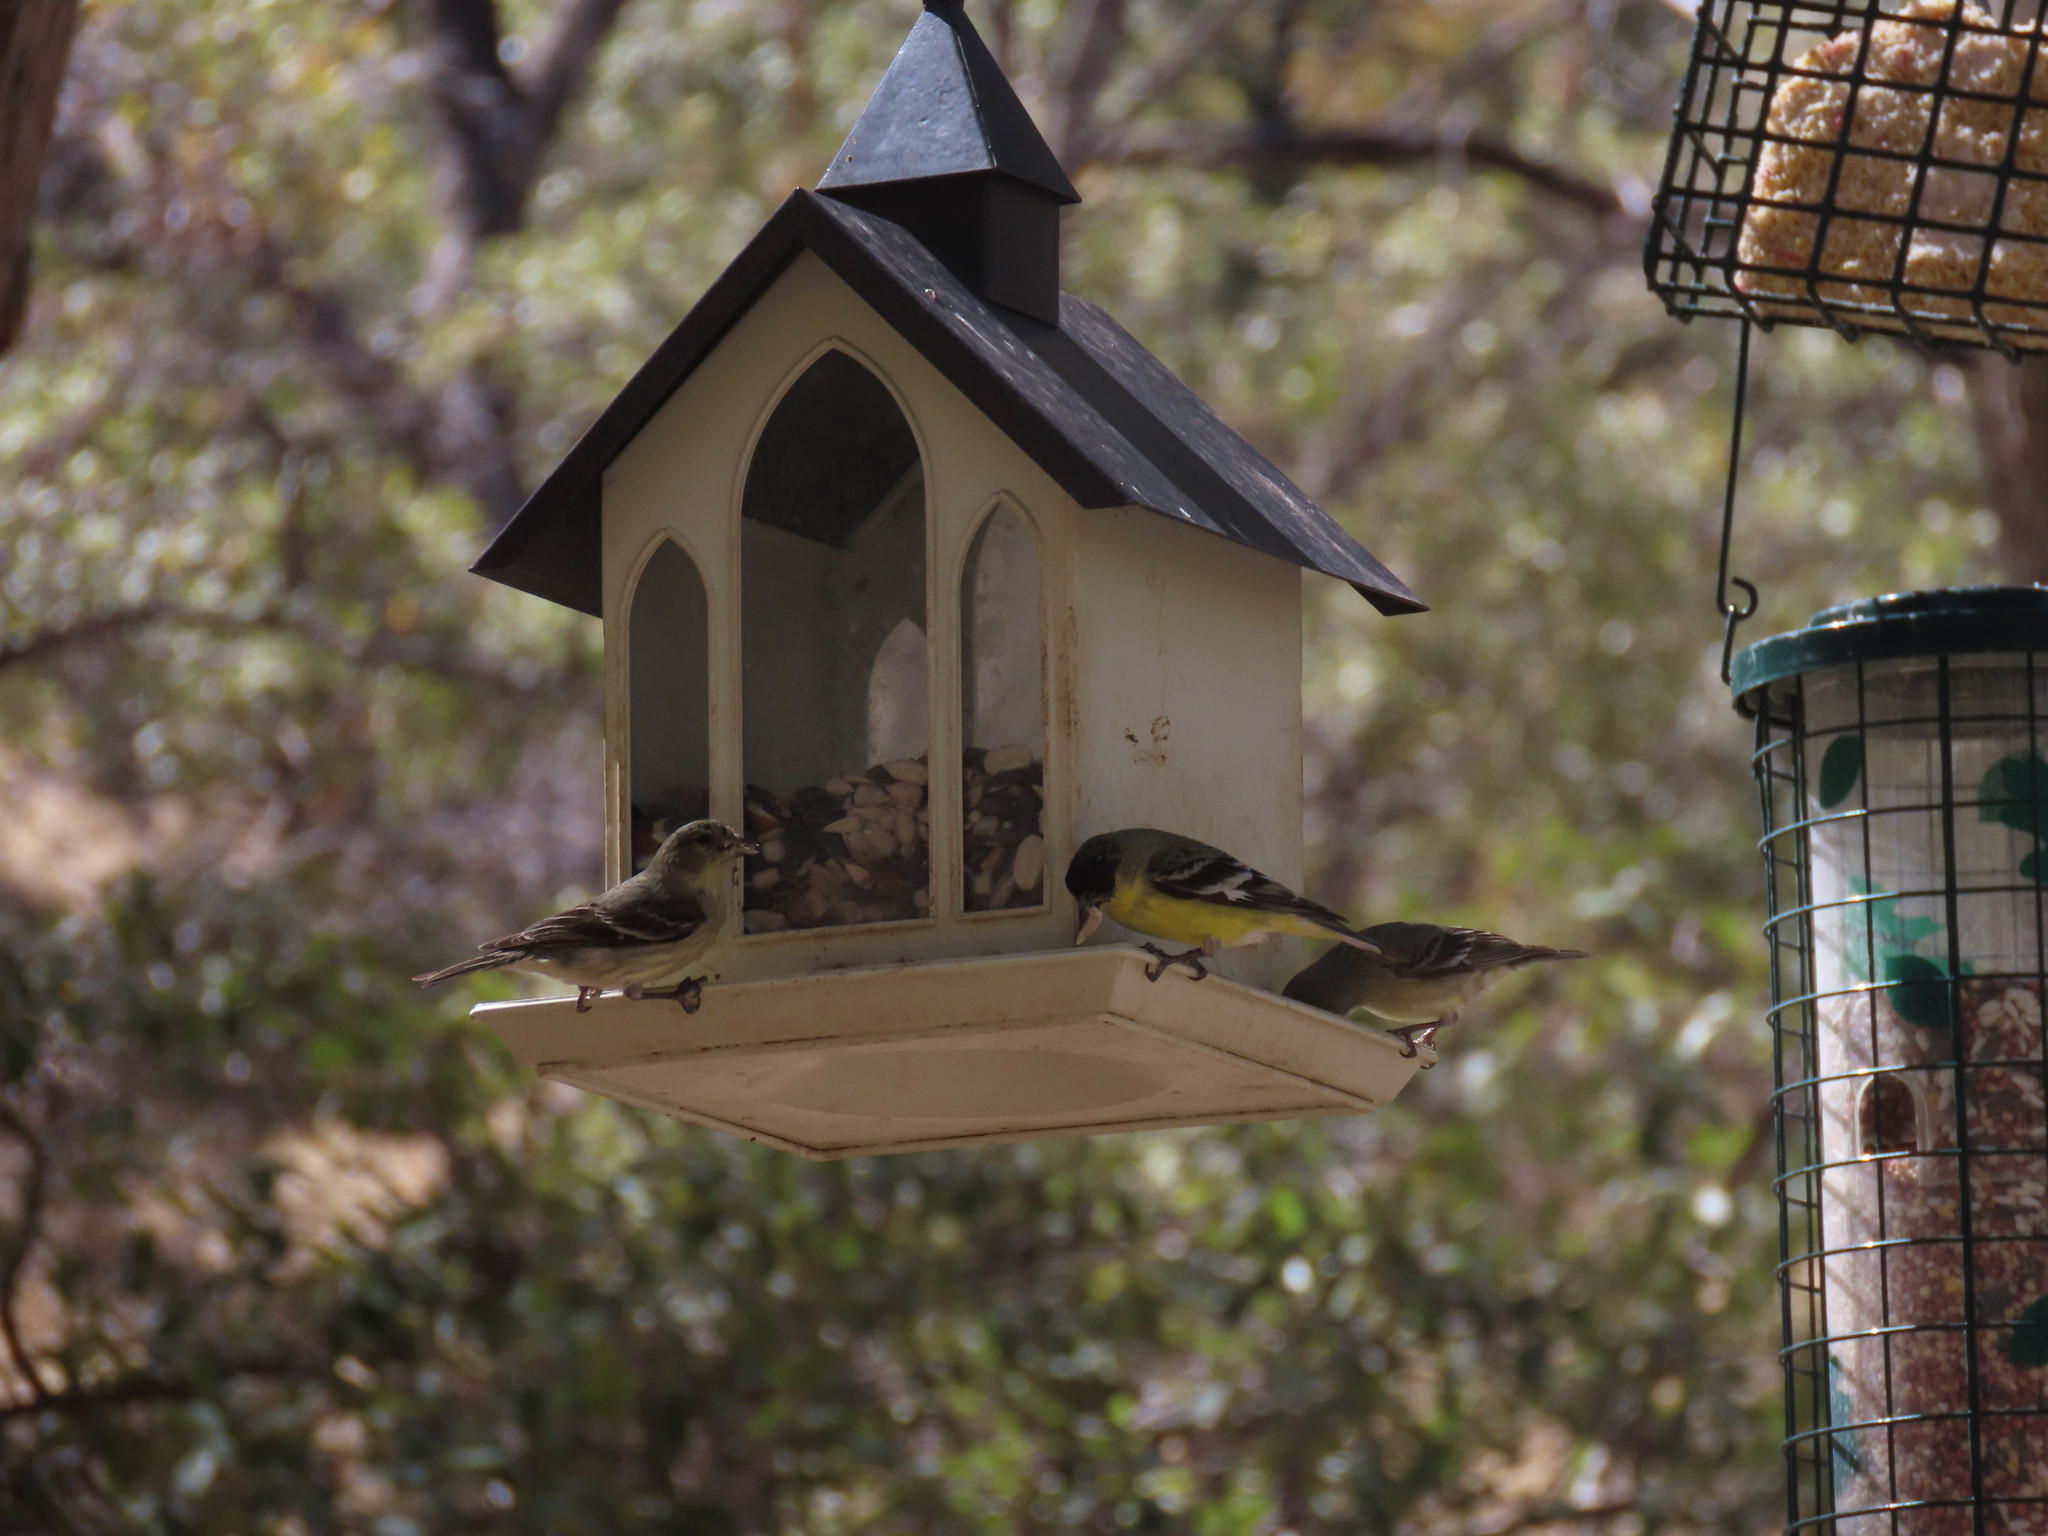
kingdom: Animalia
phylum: Chordata
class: Aves
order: Passeriformes
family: Fringillidae
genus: Spinus
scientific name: Spinus psaltria
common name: Lesser goldfinch
